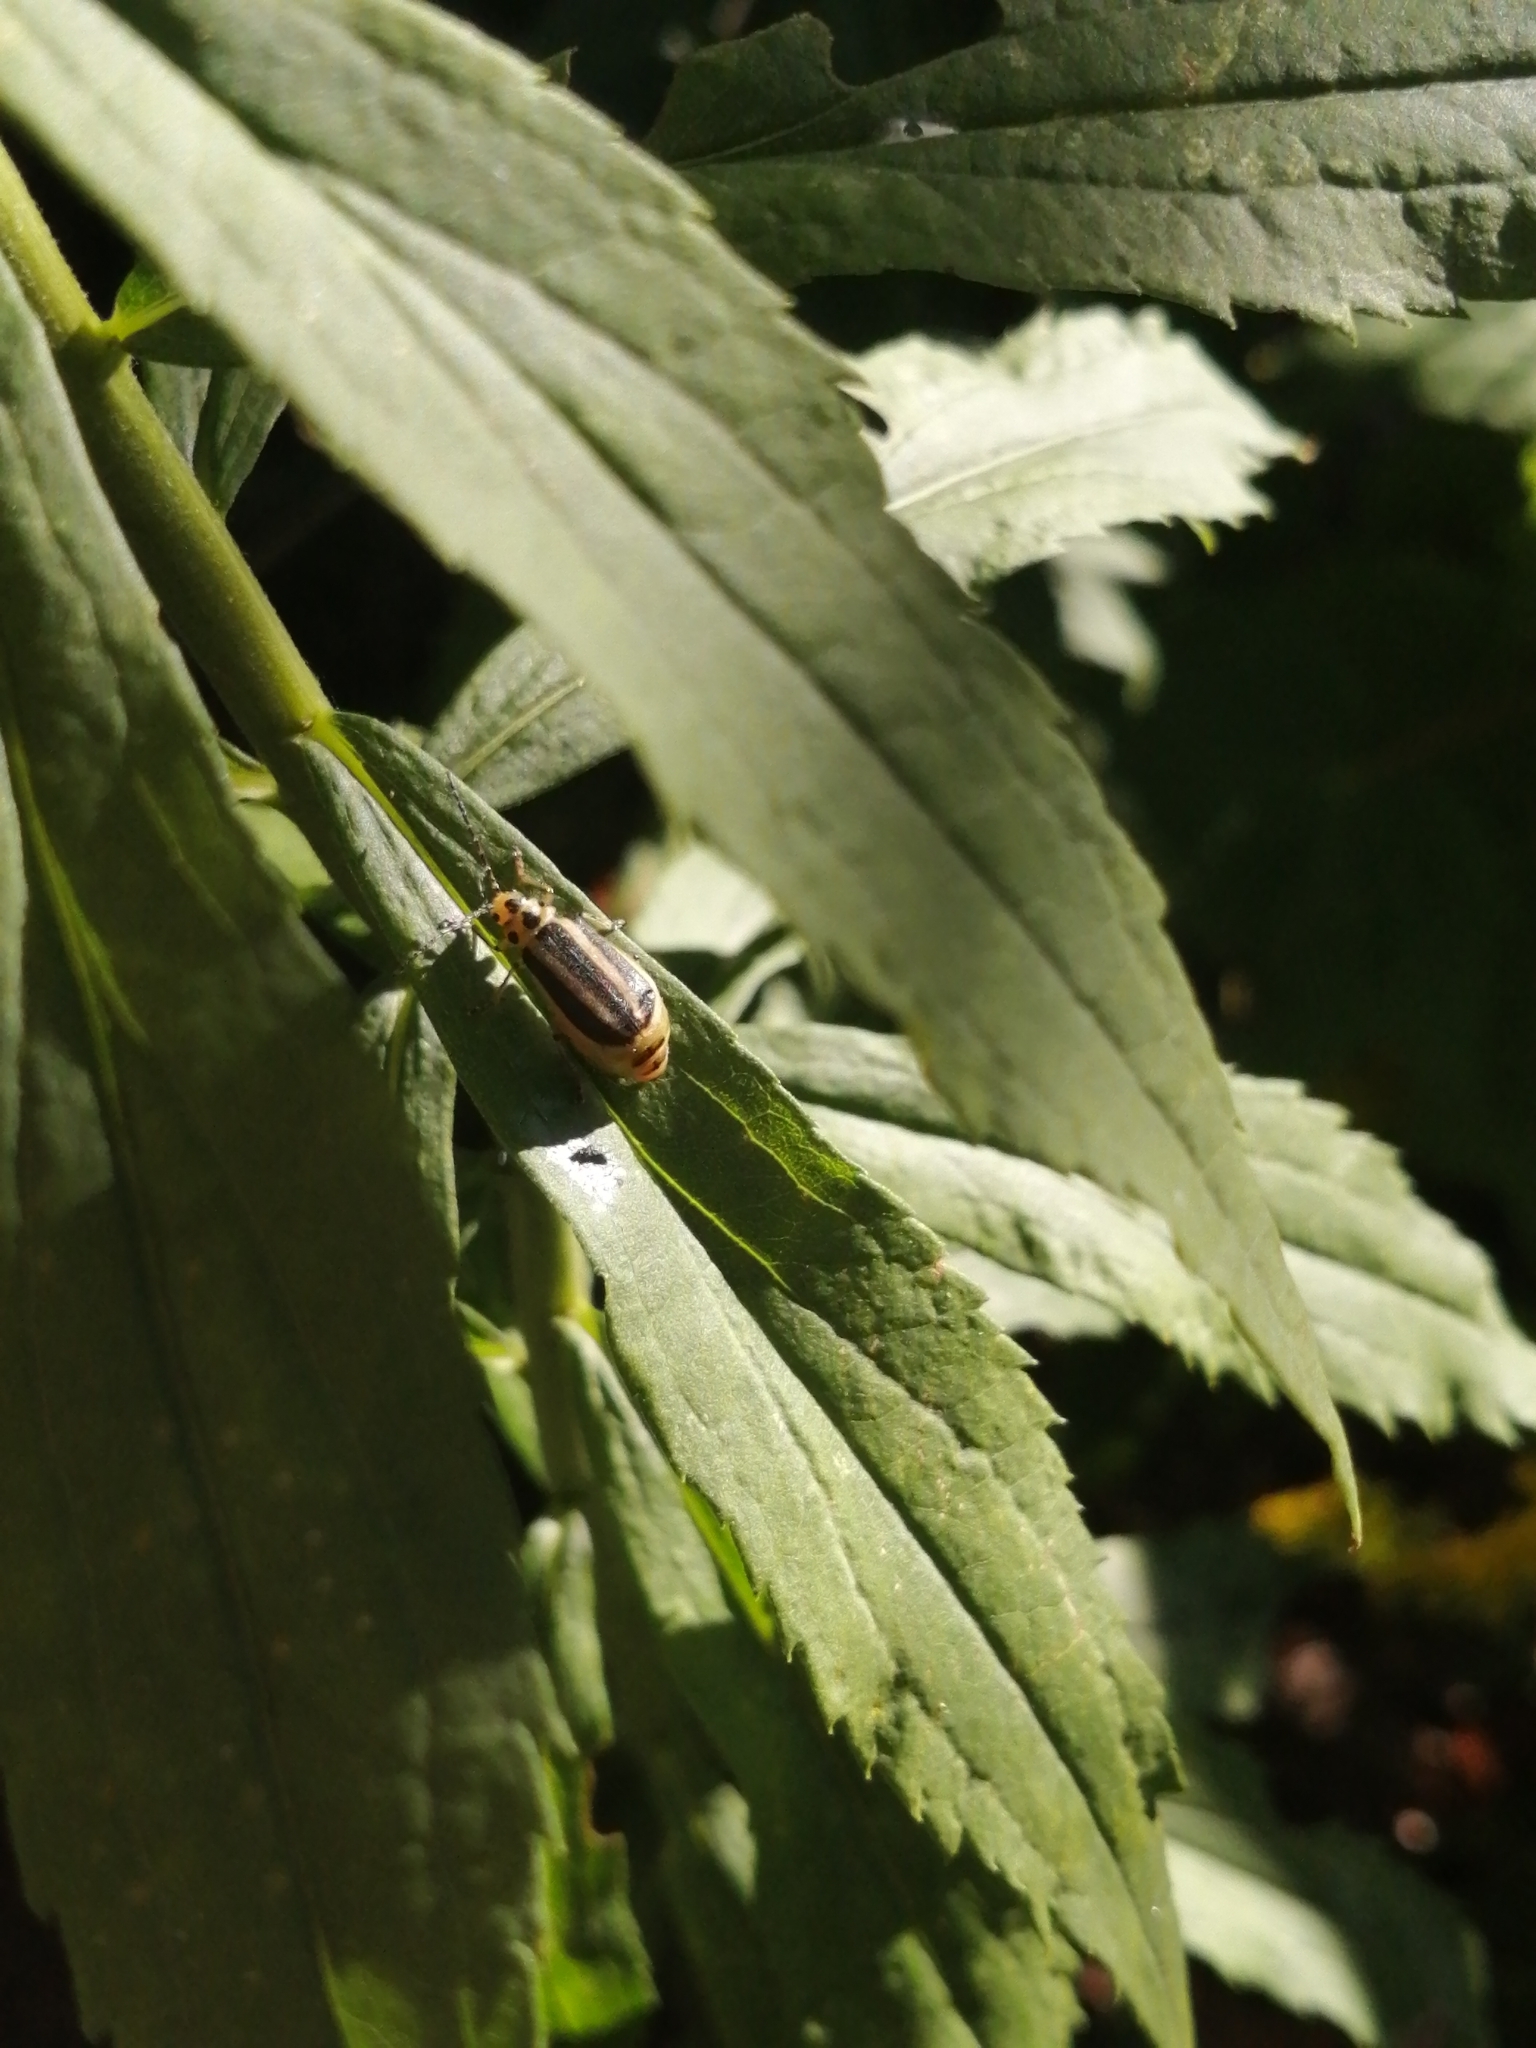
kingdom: Animalia
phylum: Arthropoda
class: Insecta
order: Coleoptera
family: Chrysomelidae
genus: Trirhabda
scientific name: Trirhabda canadensis
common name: Goldenrod leaf beetle
